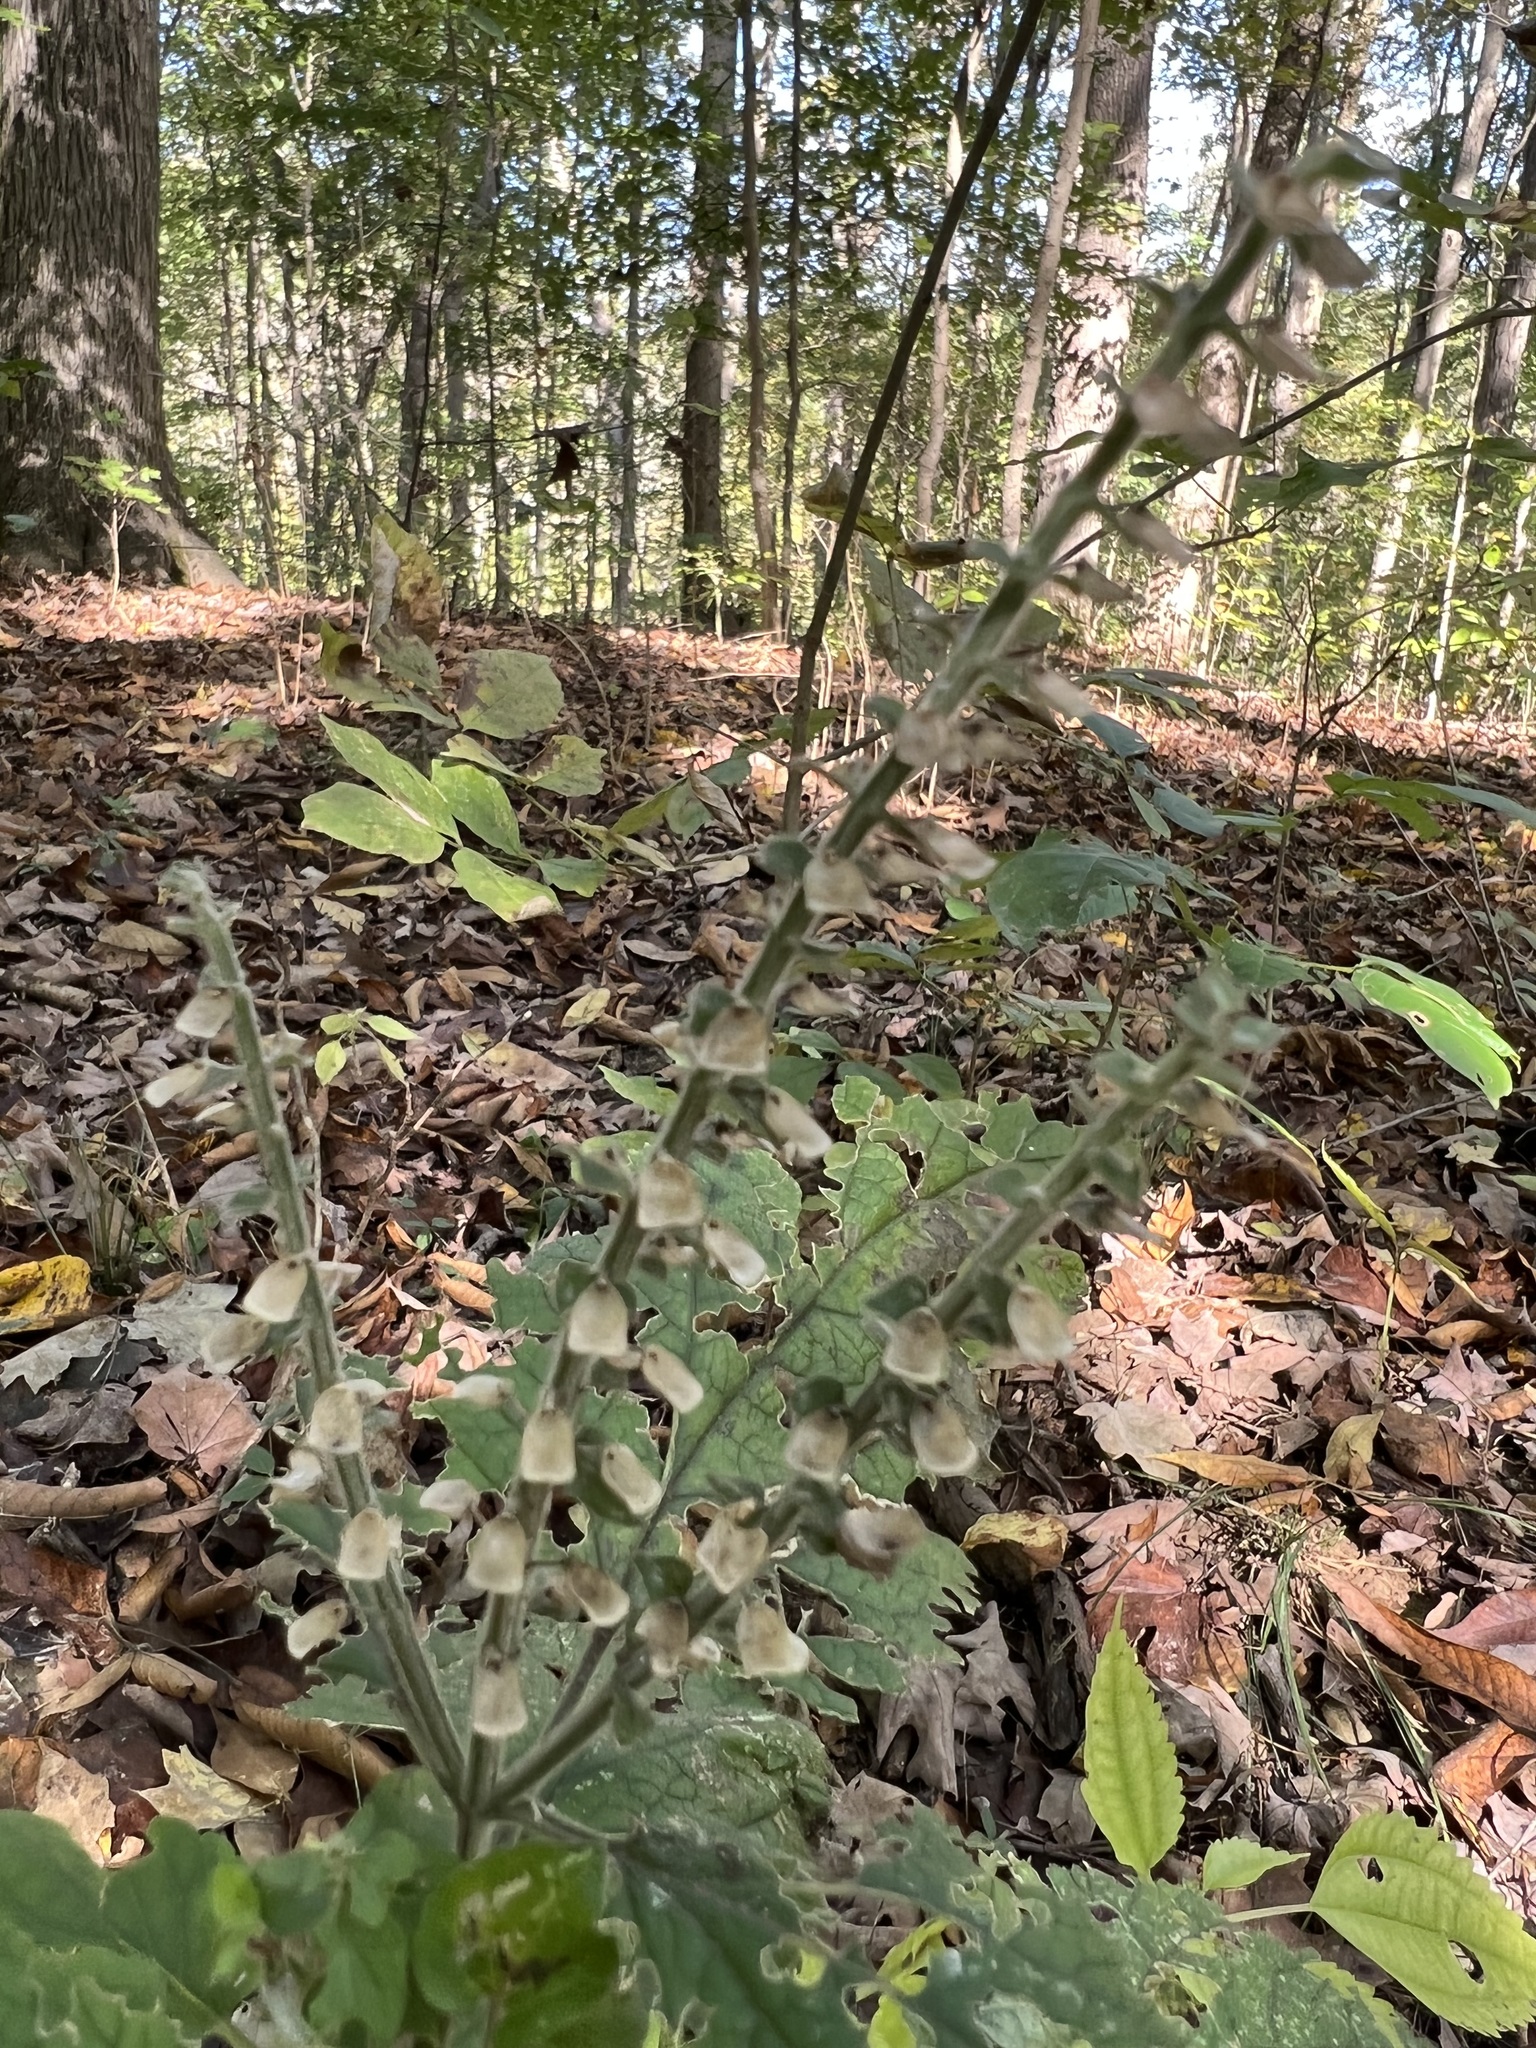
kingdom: Plantae
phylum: Tracheophyta
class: Magnoliopsida
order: Lamiales
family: Lamiaceae
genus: Scutellaria
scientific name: Scutellaria ovata
